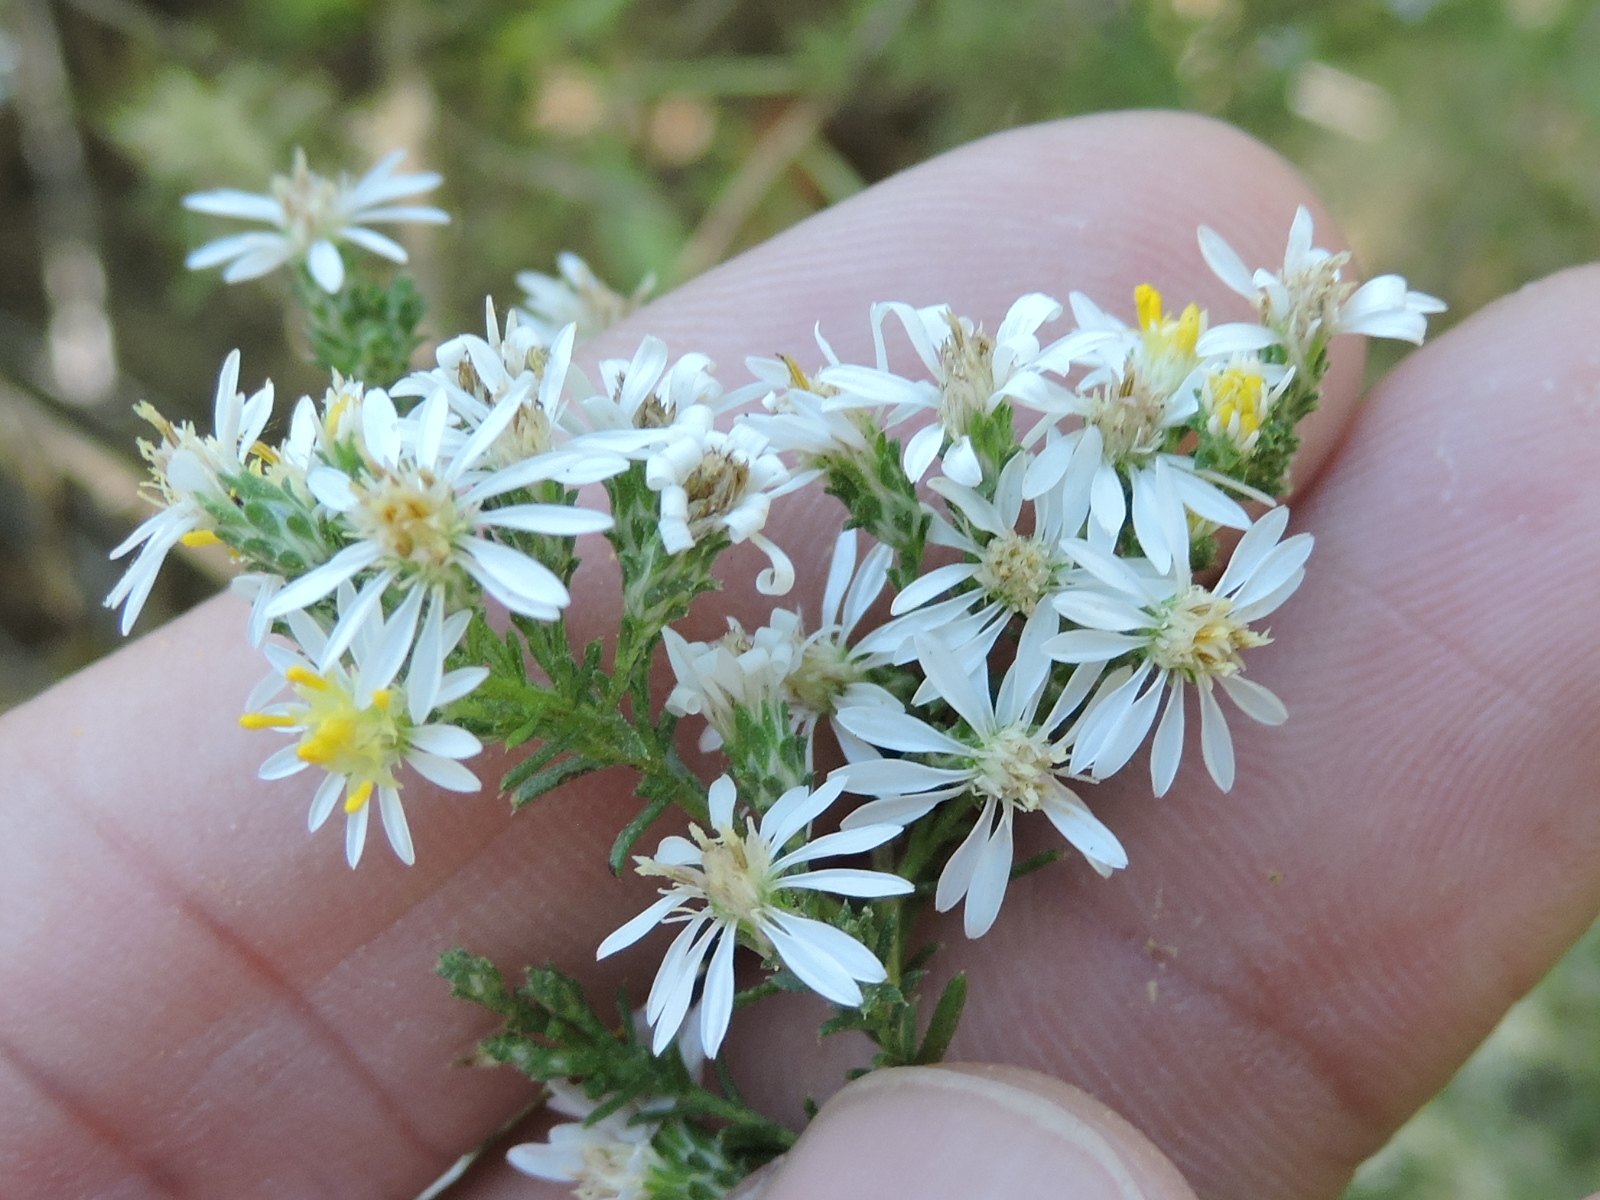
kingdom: Plantae
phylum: Tracheophyta
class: Magnoliopsida
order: Asterales
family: Asteraceae
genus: Symphyotrichum
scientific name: Symphyotrichum ericoides
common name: Heath aster
